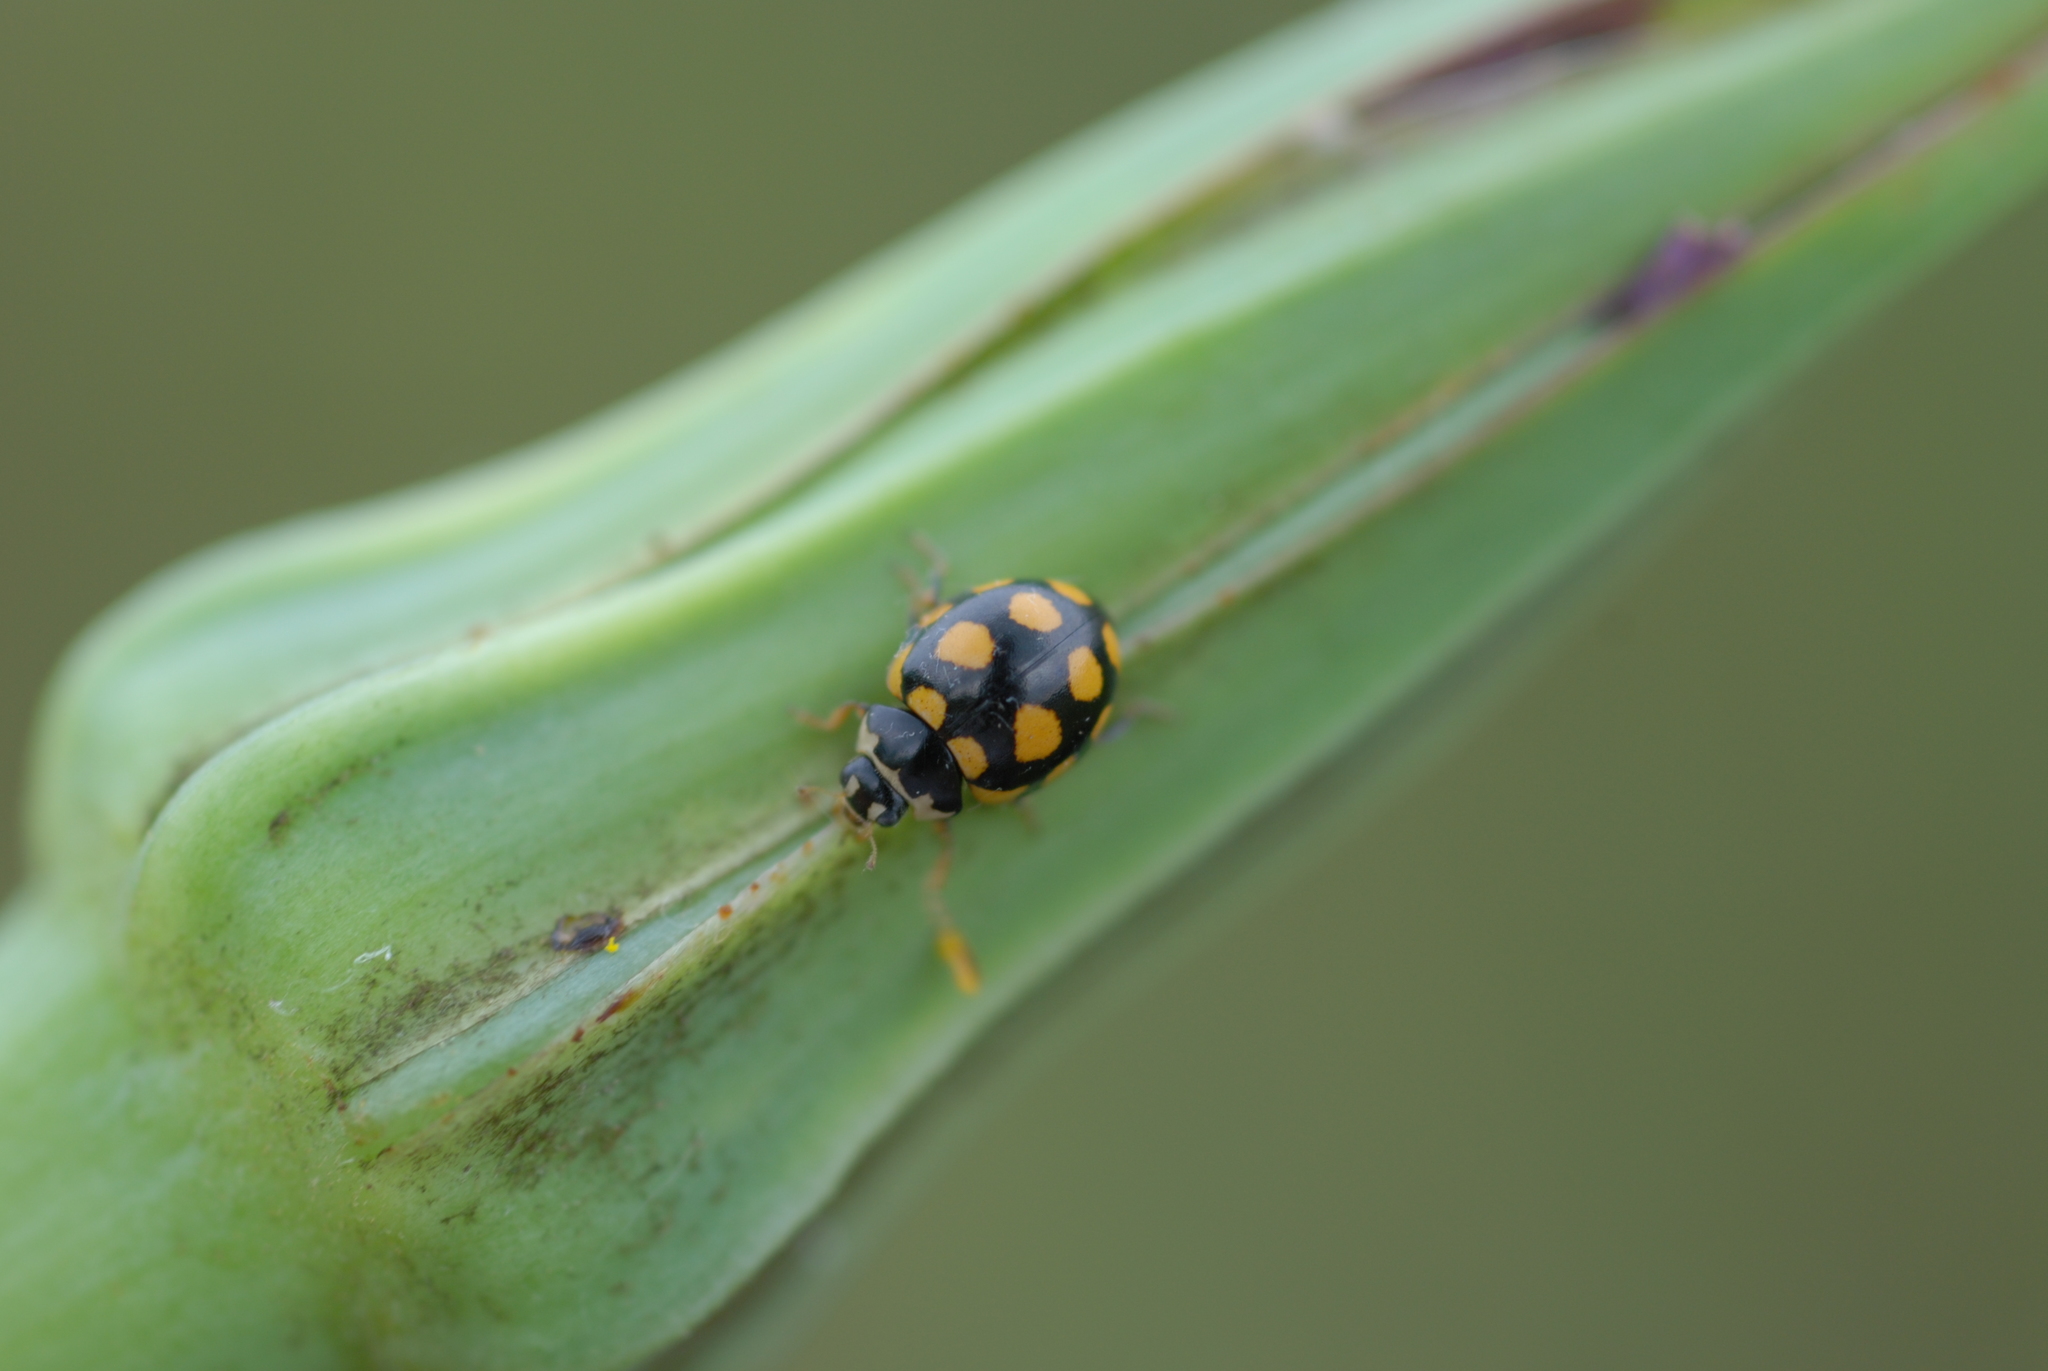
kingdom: Animalia
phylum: Arthropoda
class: Insecta
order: Coleoptera
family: Coccinellidae
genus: Coccinula
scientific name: Coccinula quatuordecimpustulata
